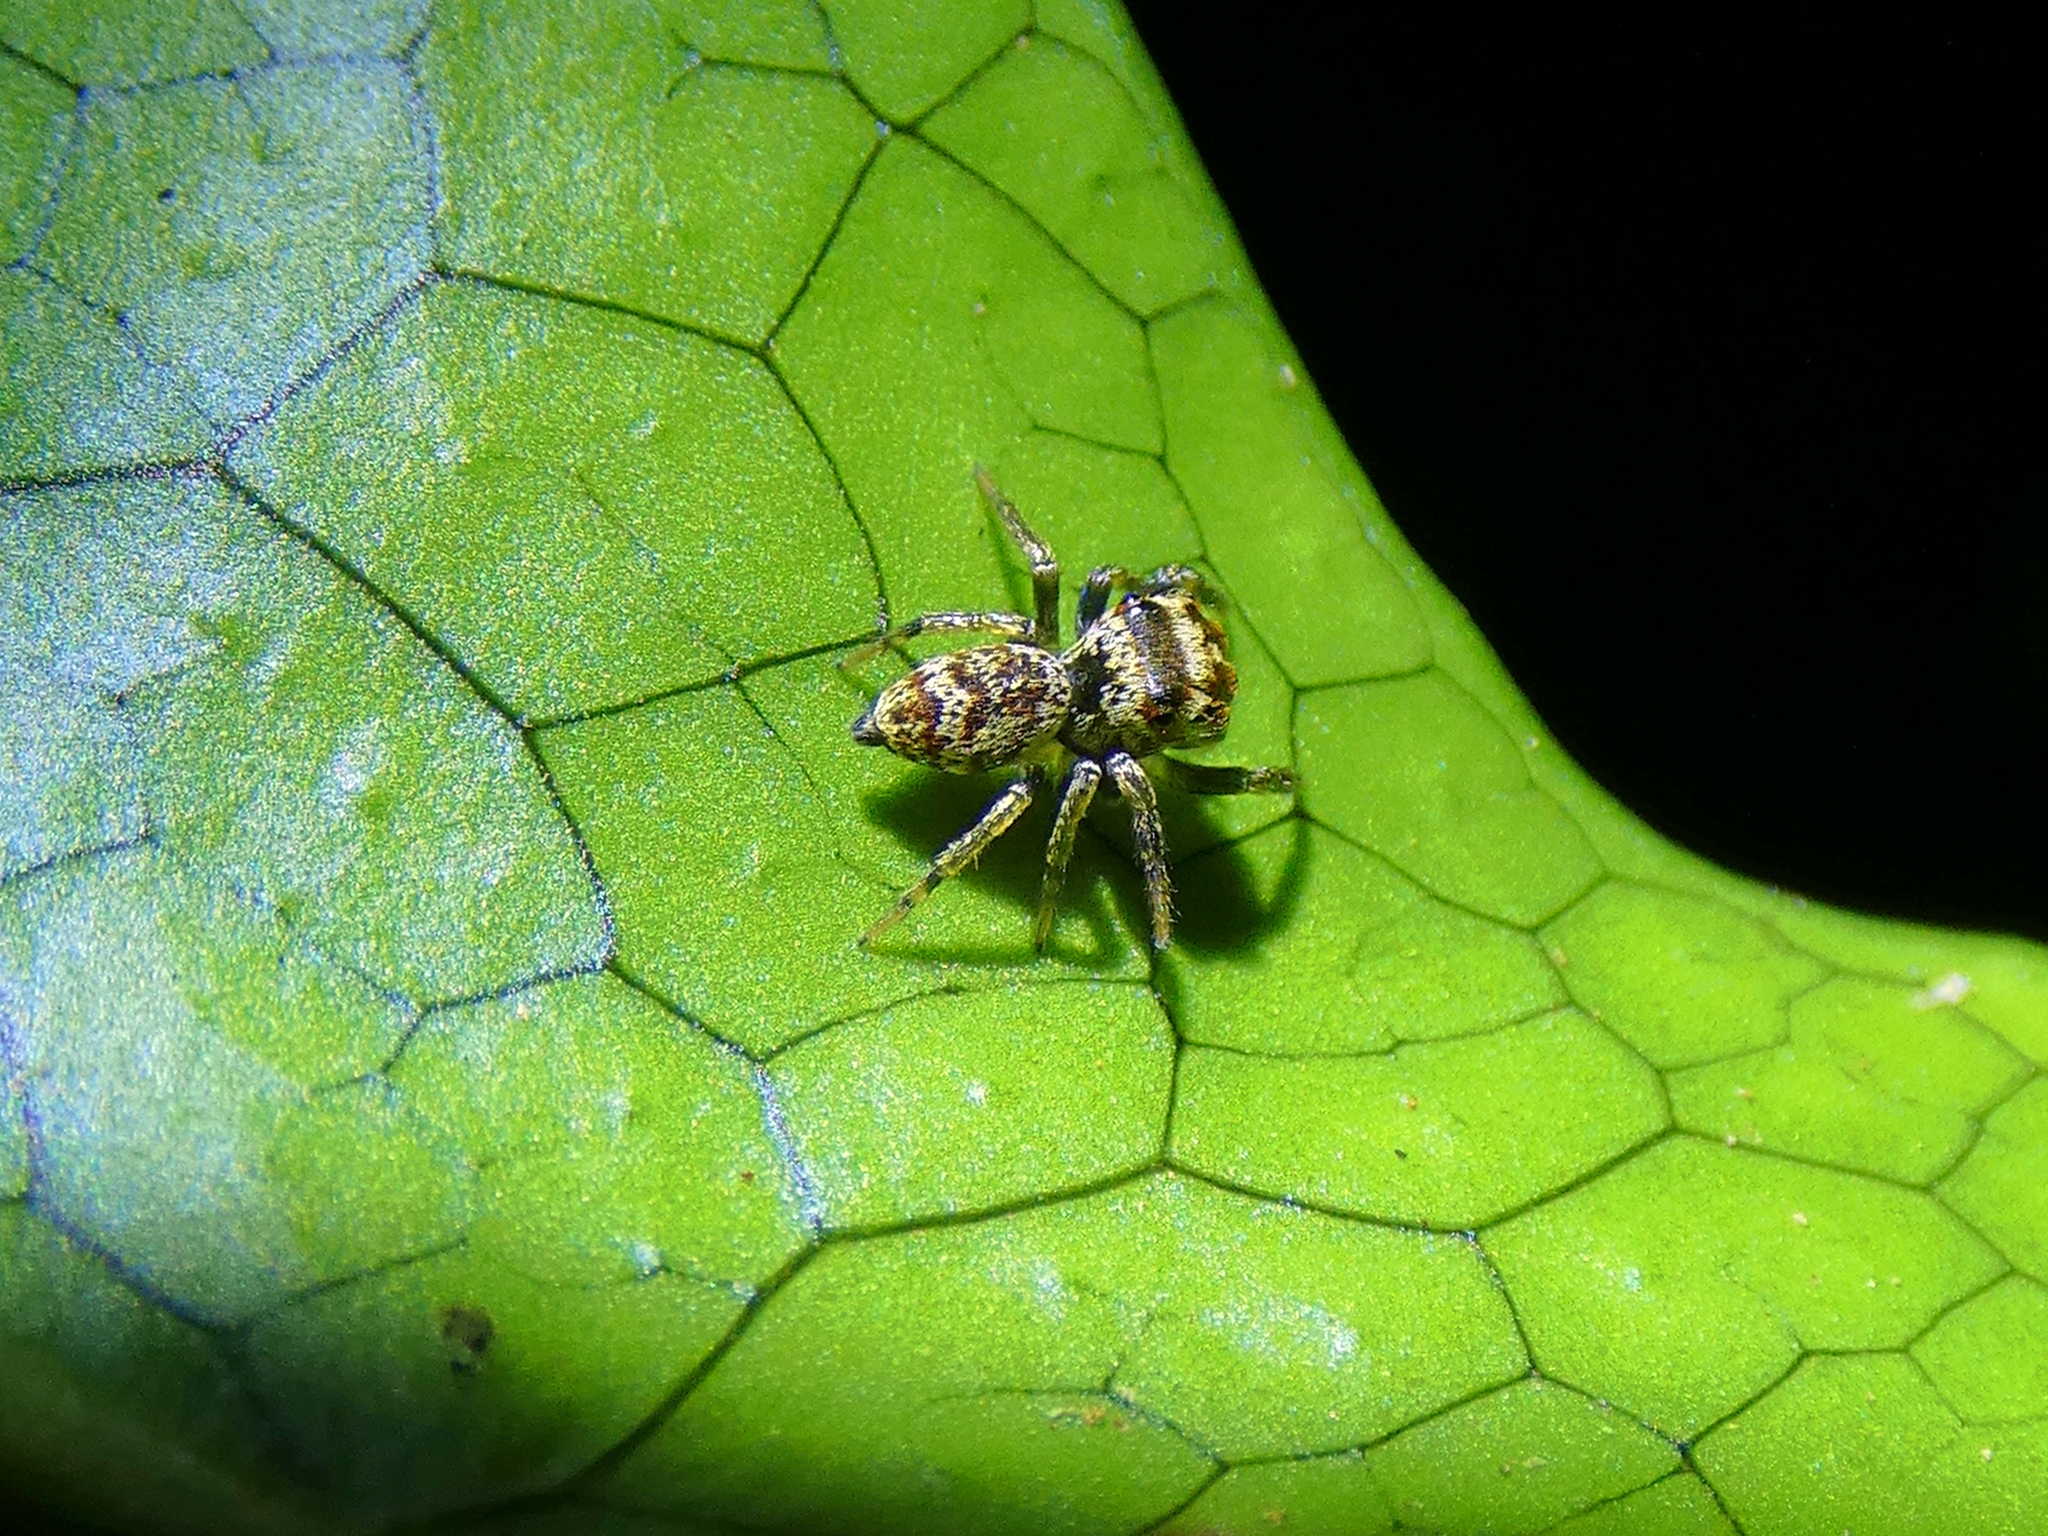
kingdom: Animalia
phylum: Arthropoda
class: Arachnida
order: Araneae
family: Salticidae
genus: Euryattus
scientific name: Euryattus bleekeri
